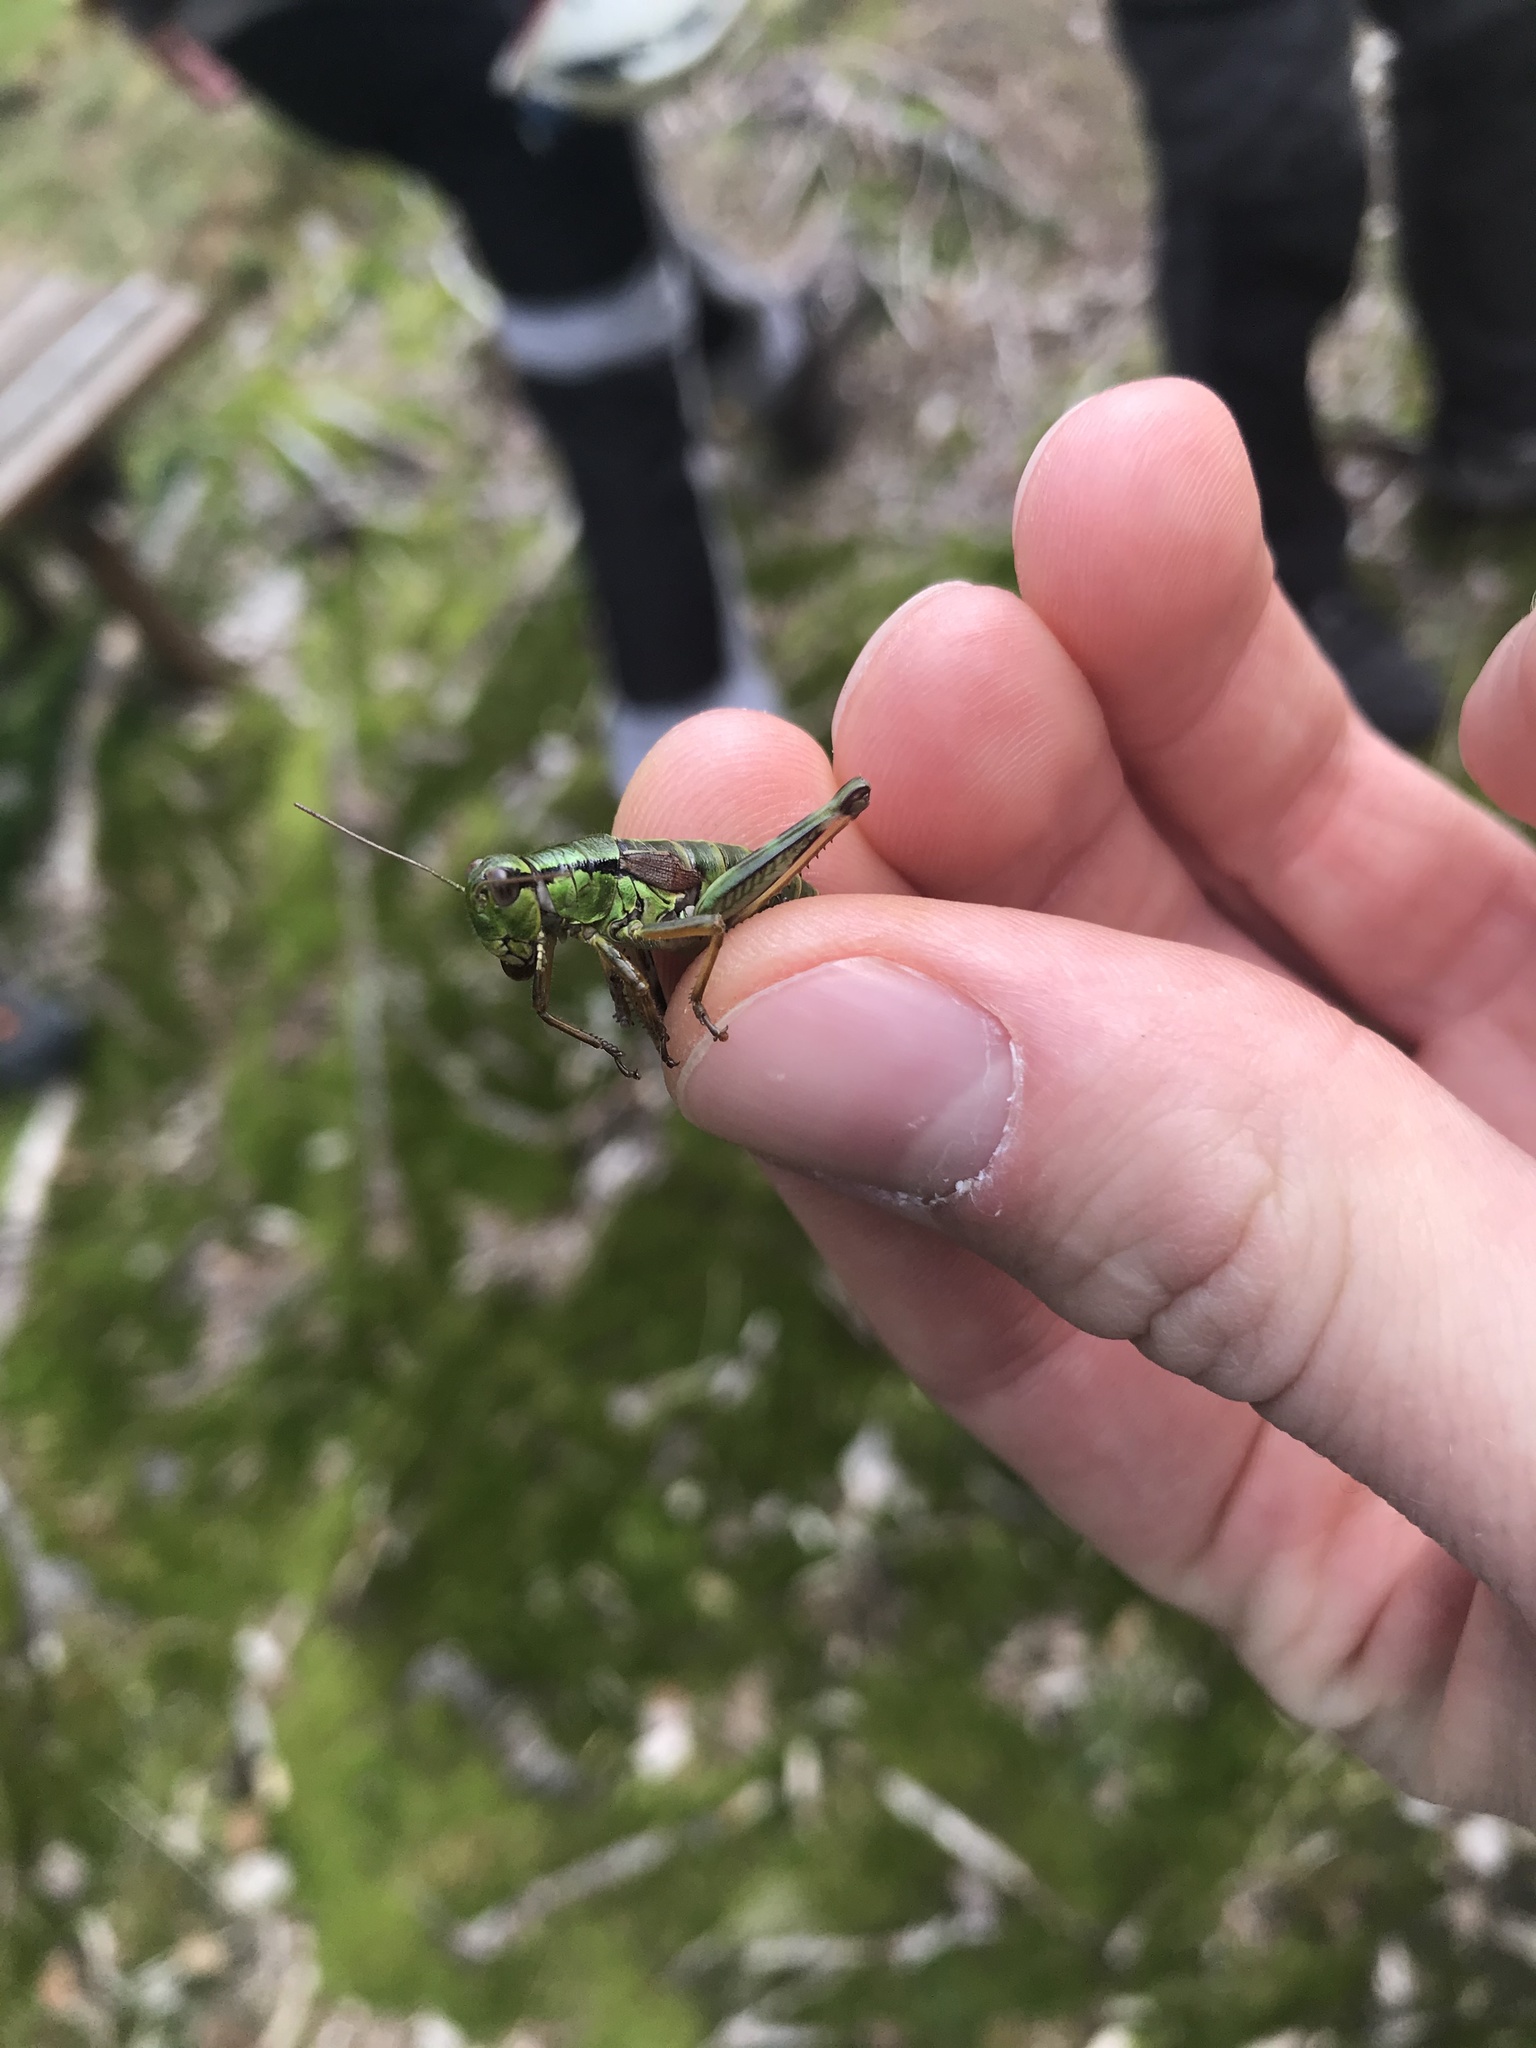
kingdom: Animalia
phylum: Arthropoda
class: Insecta
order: Orthoptera
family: Acrididae
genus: Miramella
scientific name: Miramella alpina
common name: Green mountain grasshopper
